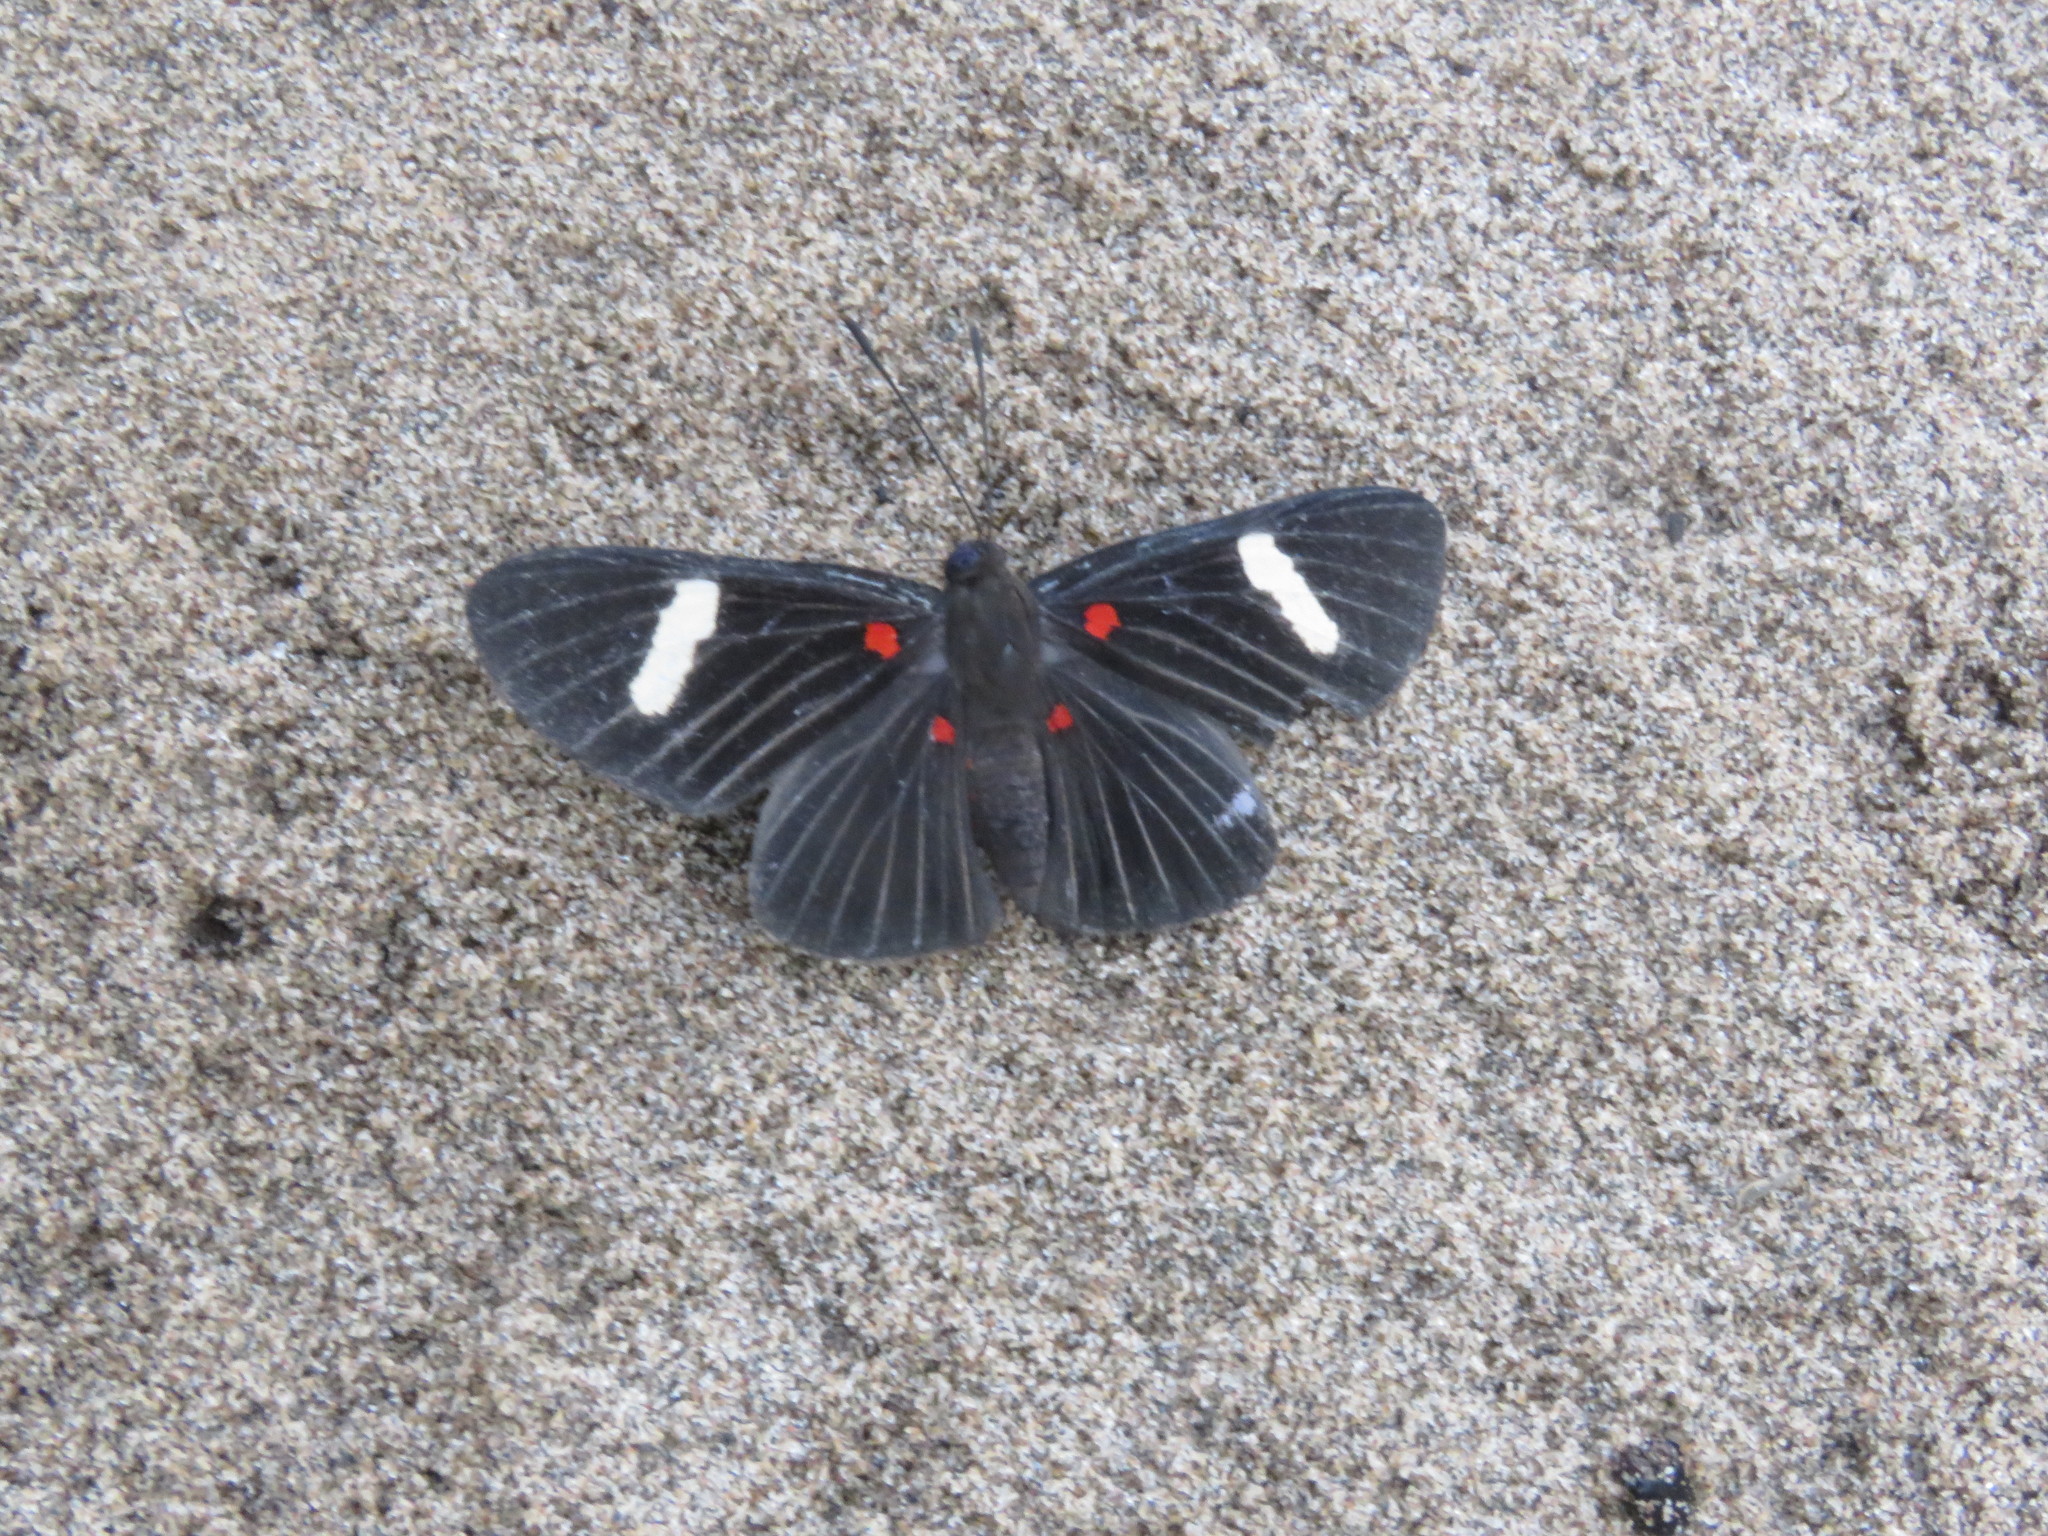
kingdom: Animalia
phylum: Arthropoda
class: Insecta
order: Lepidoptera
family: Lycaenidae
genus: Melanis
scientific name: Melanis aegates
